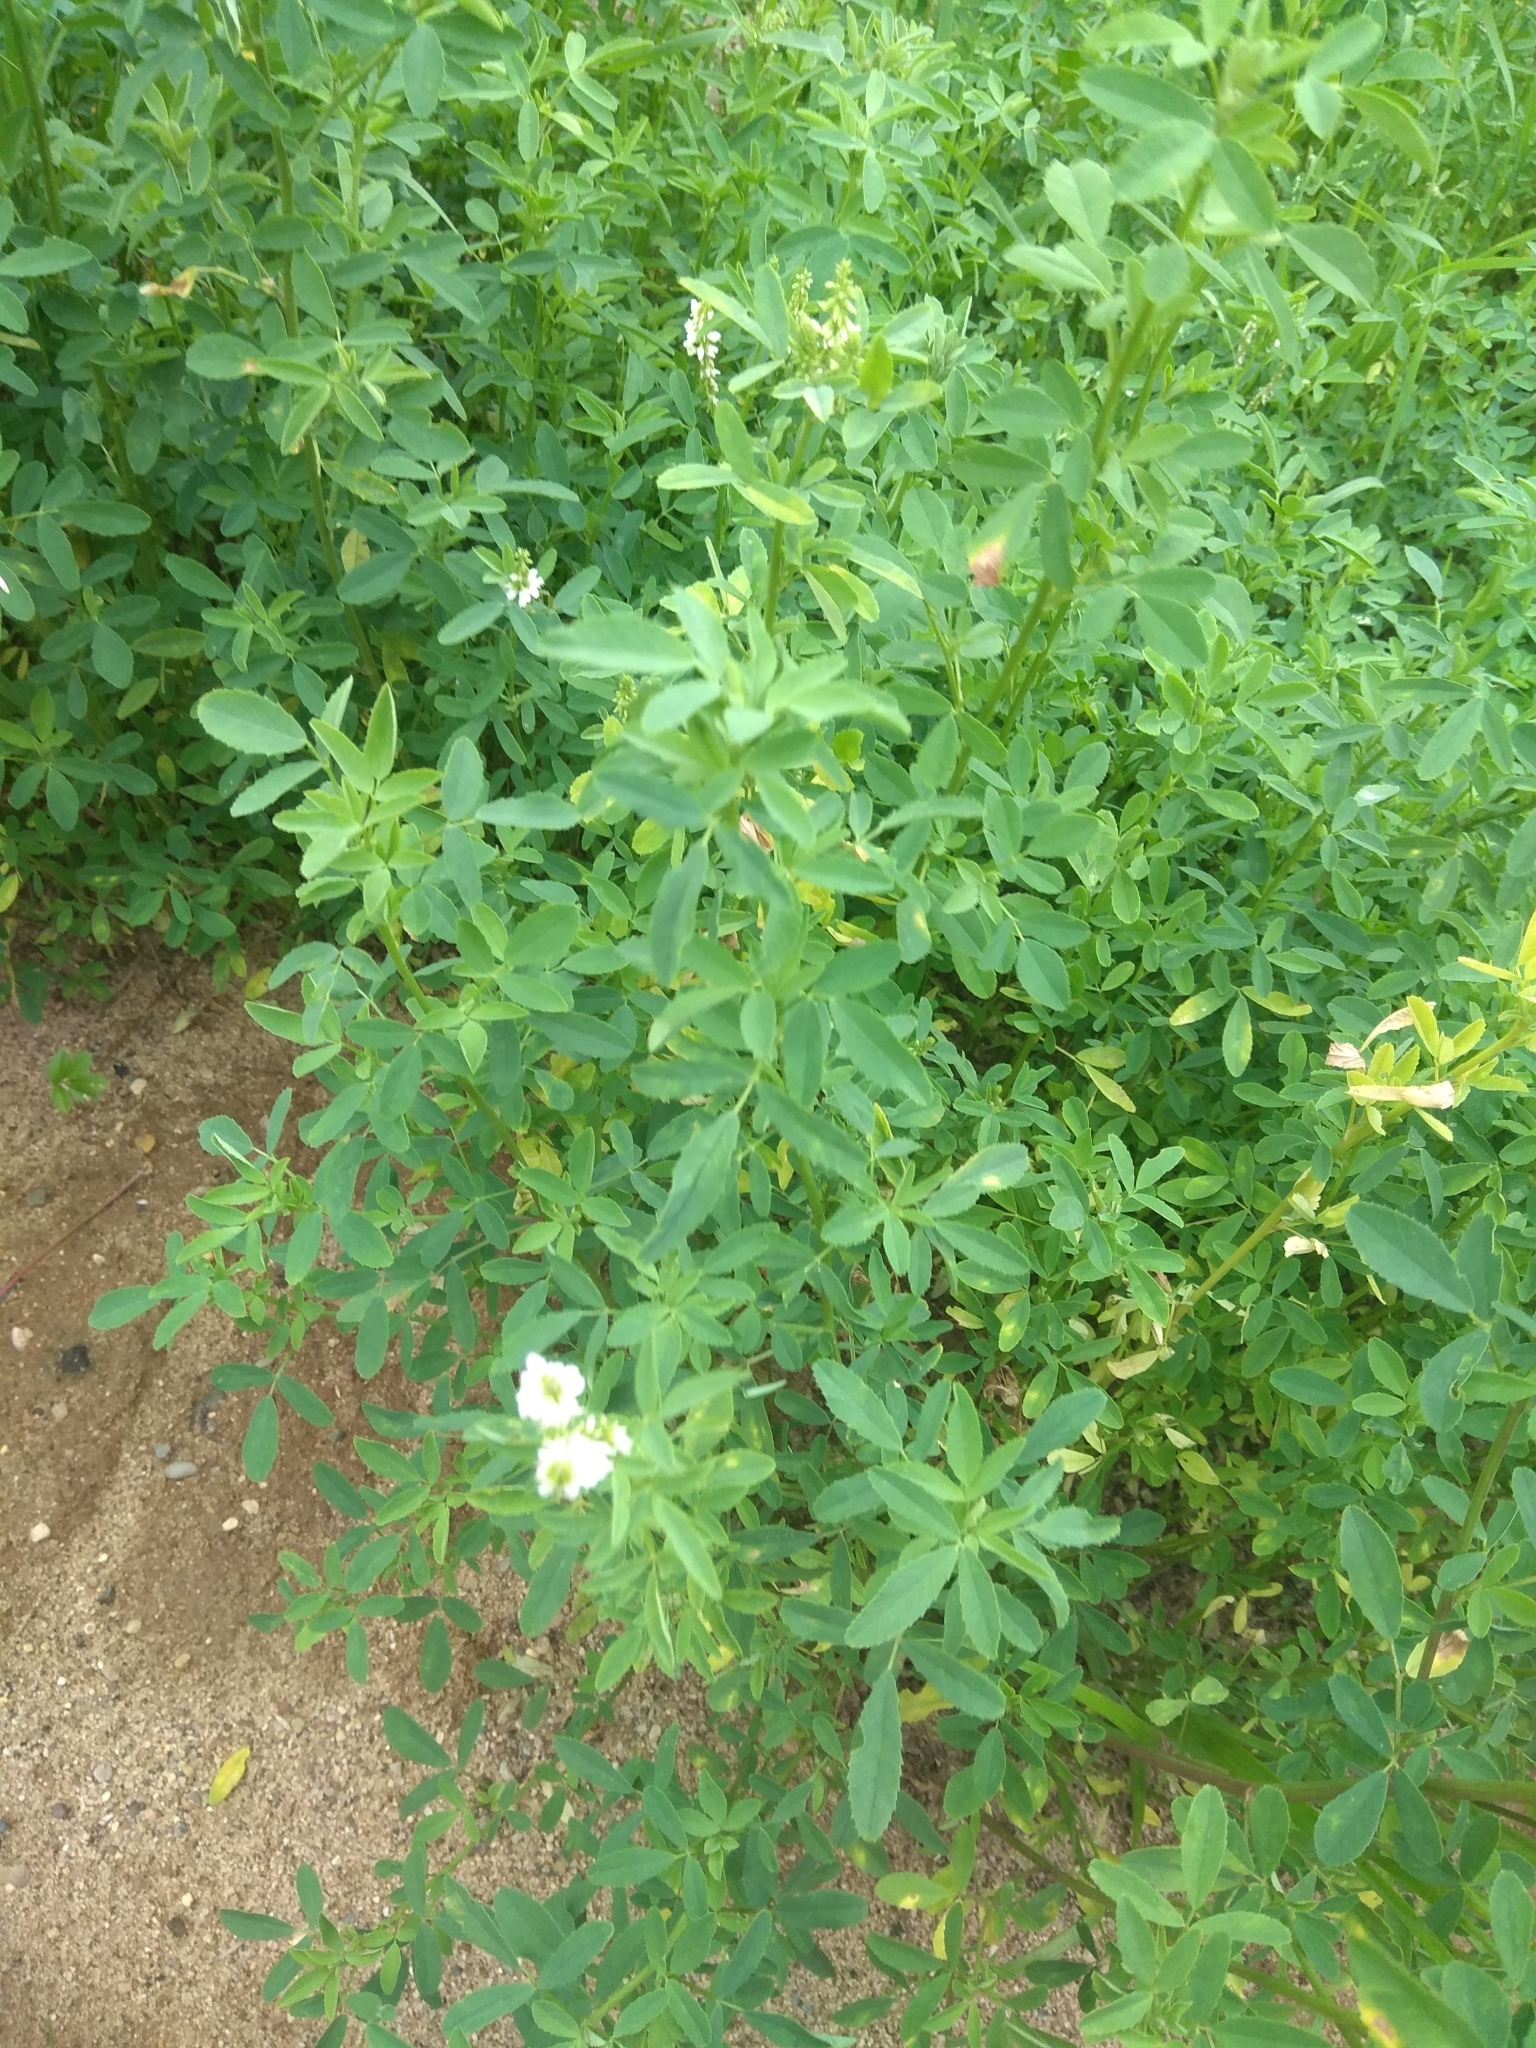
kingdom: Plantae
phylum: Tracheophyta
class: Magnoliopsida
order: Fabales
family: Fabaceae
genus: Melilotus
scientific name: Melilotus albus
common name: White melilot
